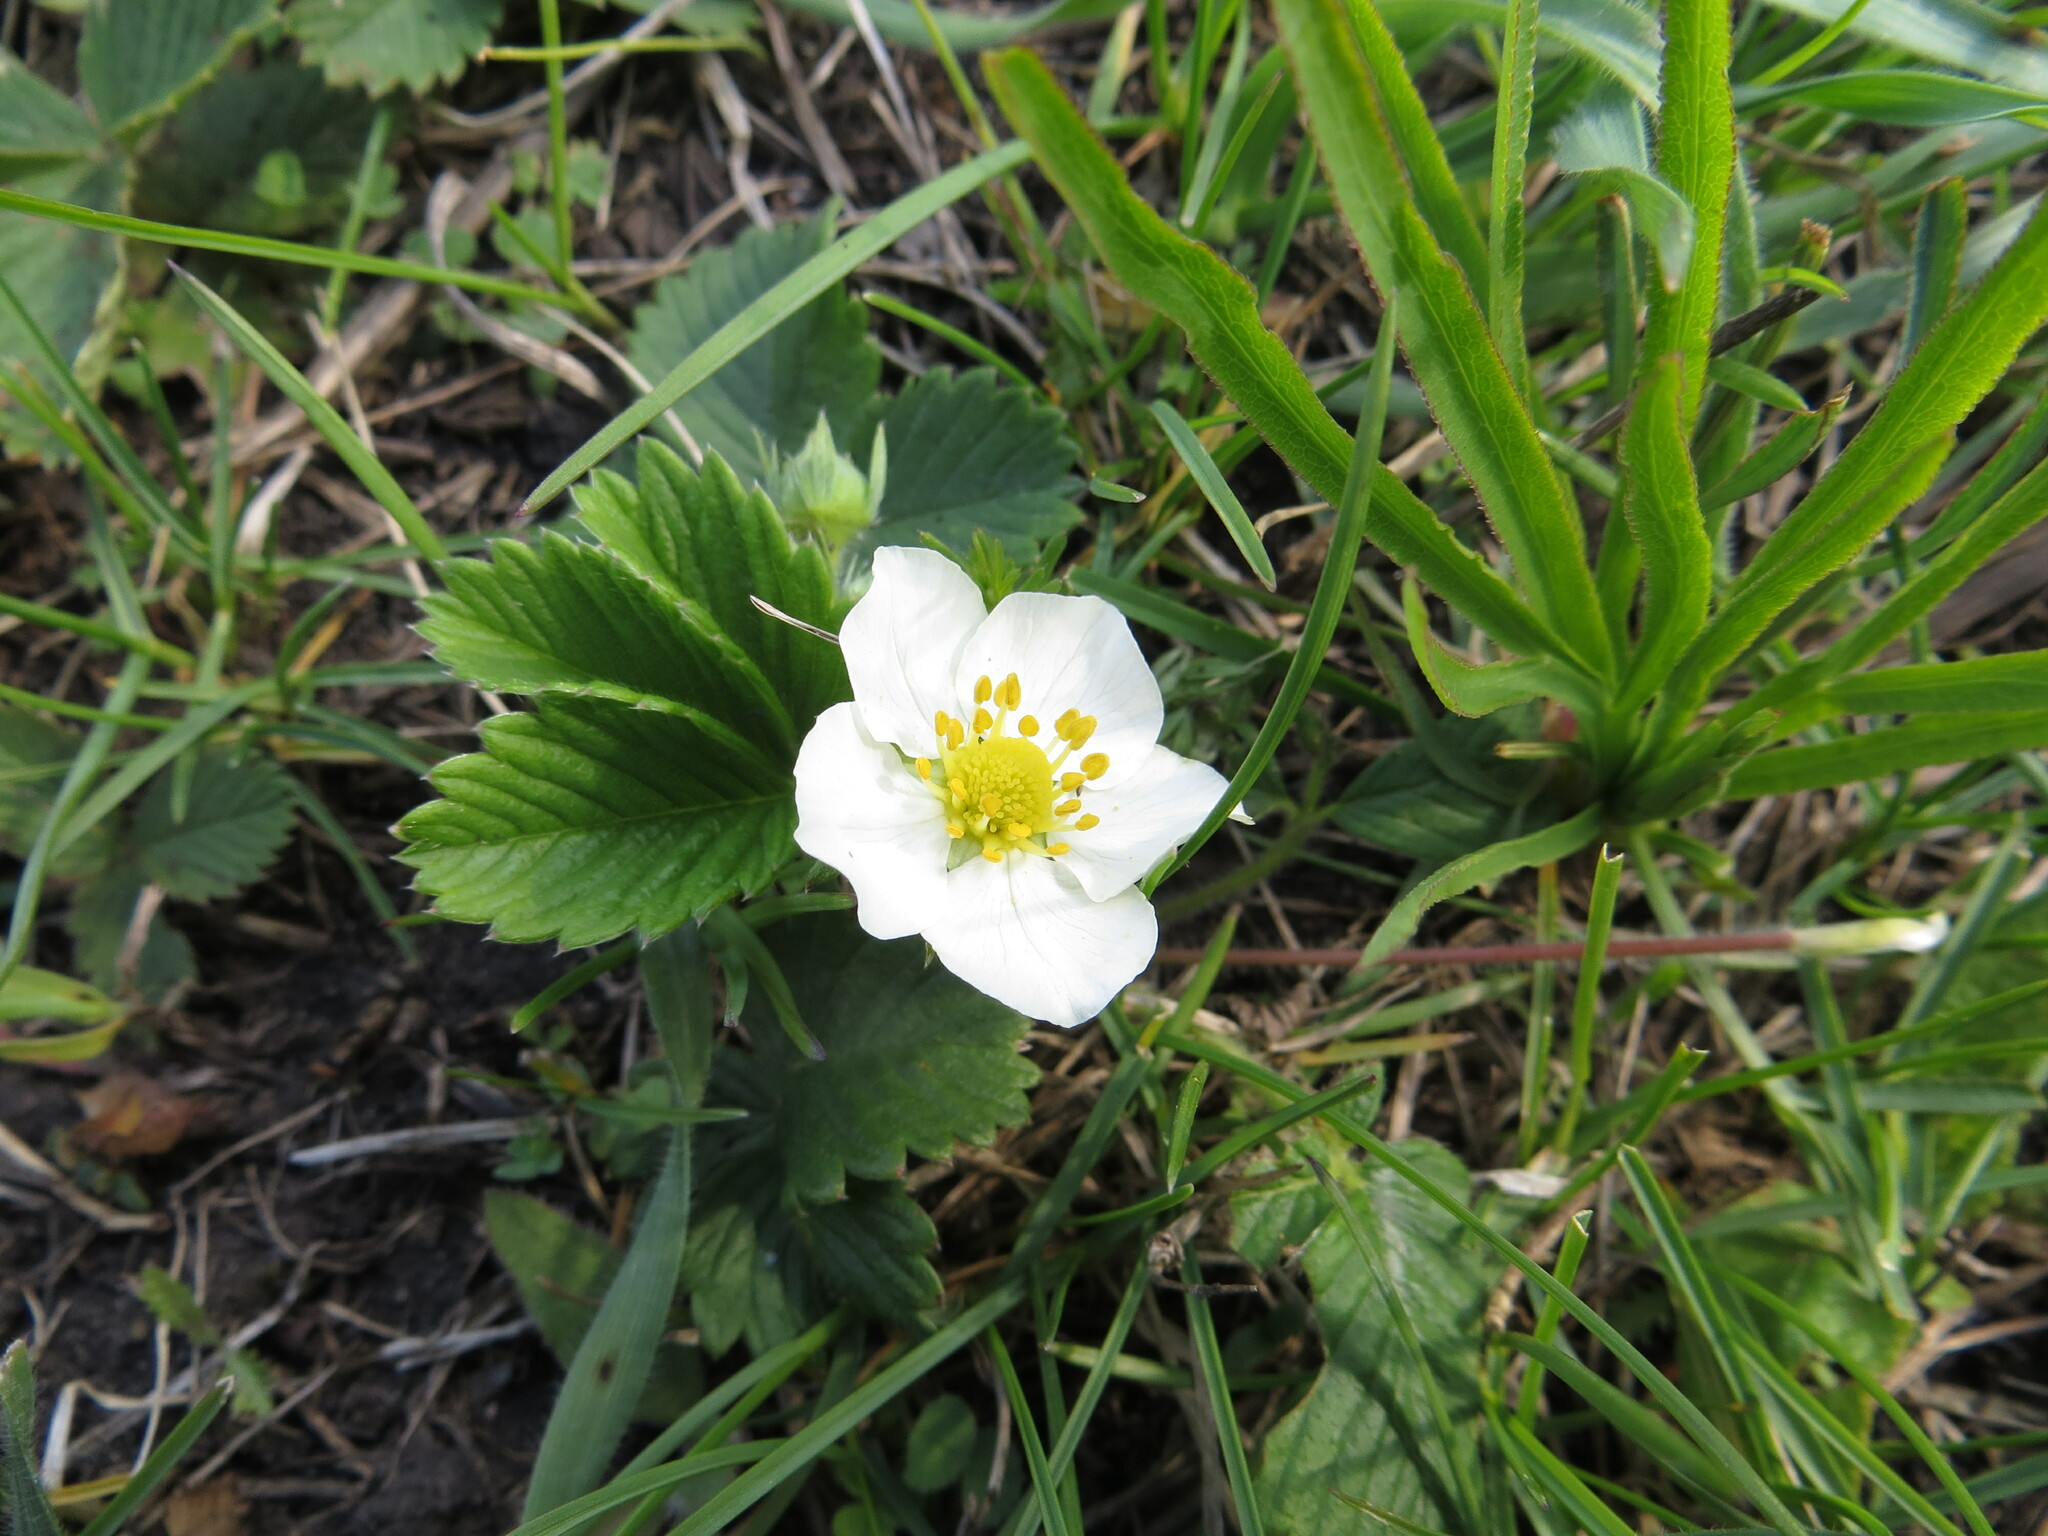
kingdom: Plantae
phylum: Tracheophyta
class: Magnoliopsida
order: Rosales
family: Rosaceae
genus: Fragaria
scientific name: Fragaria viridis
